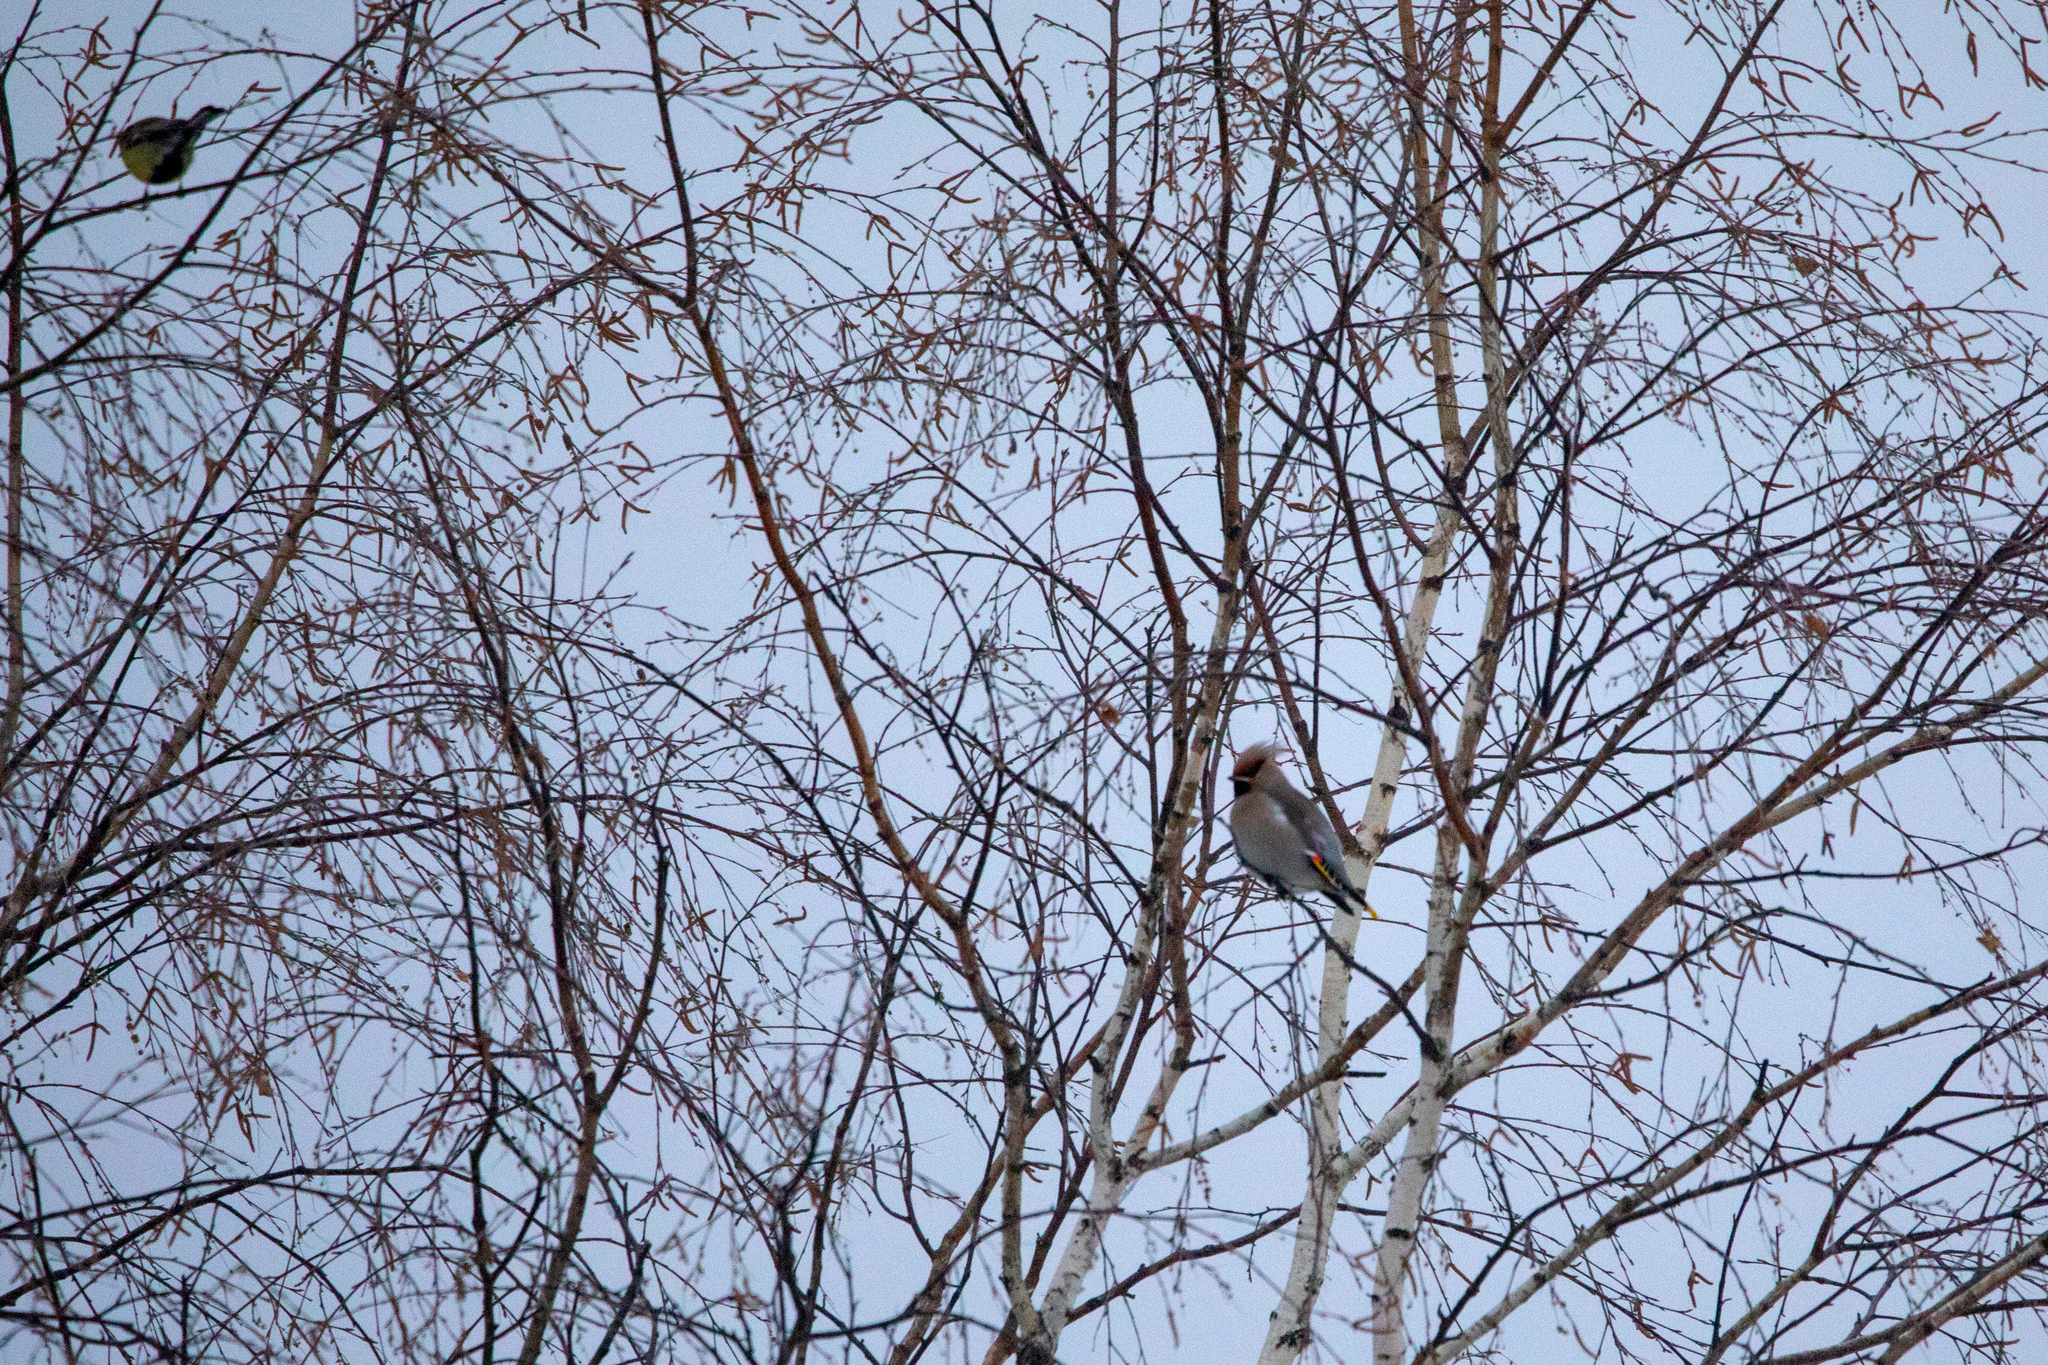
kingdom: Animalia
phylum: Chordata
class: Aves
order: Passeriformes
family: Bombycillidae
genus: Bombycilla
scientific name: Bombycilla garrulus
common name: Bohemian waxwing
